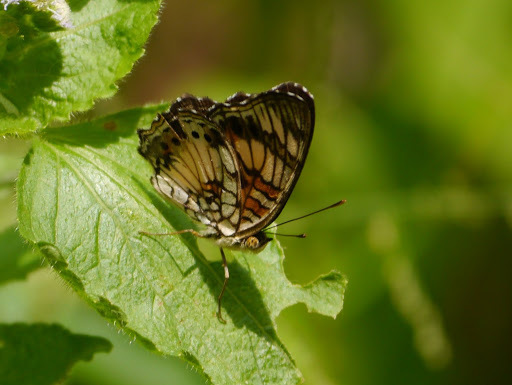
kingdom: Animalia
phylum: Arthropoda
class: Insecta
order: Lepidoptera
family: Nymphalidae
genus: Junonia
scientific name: Junonia sophia
